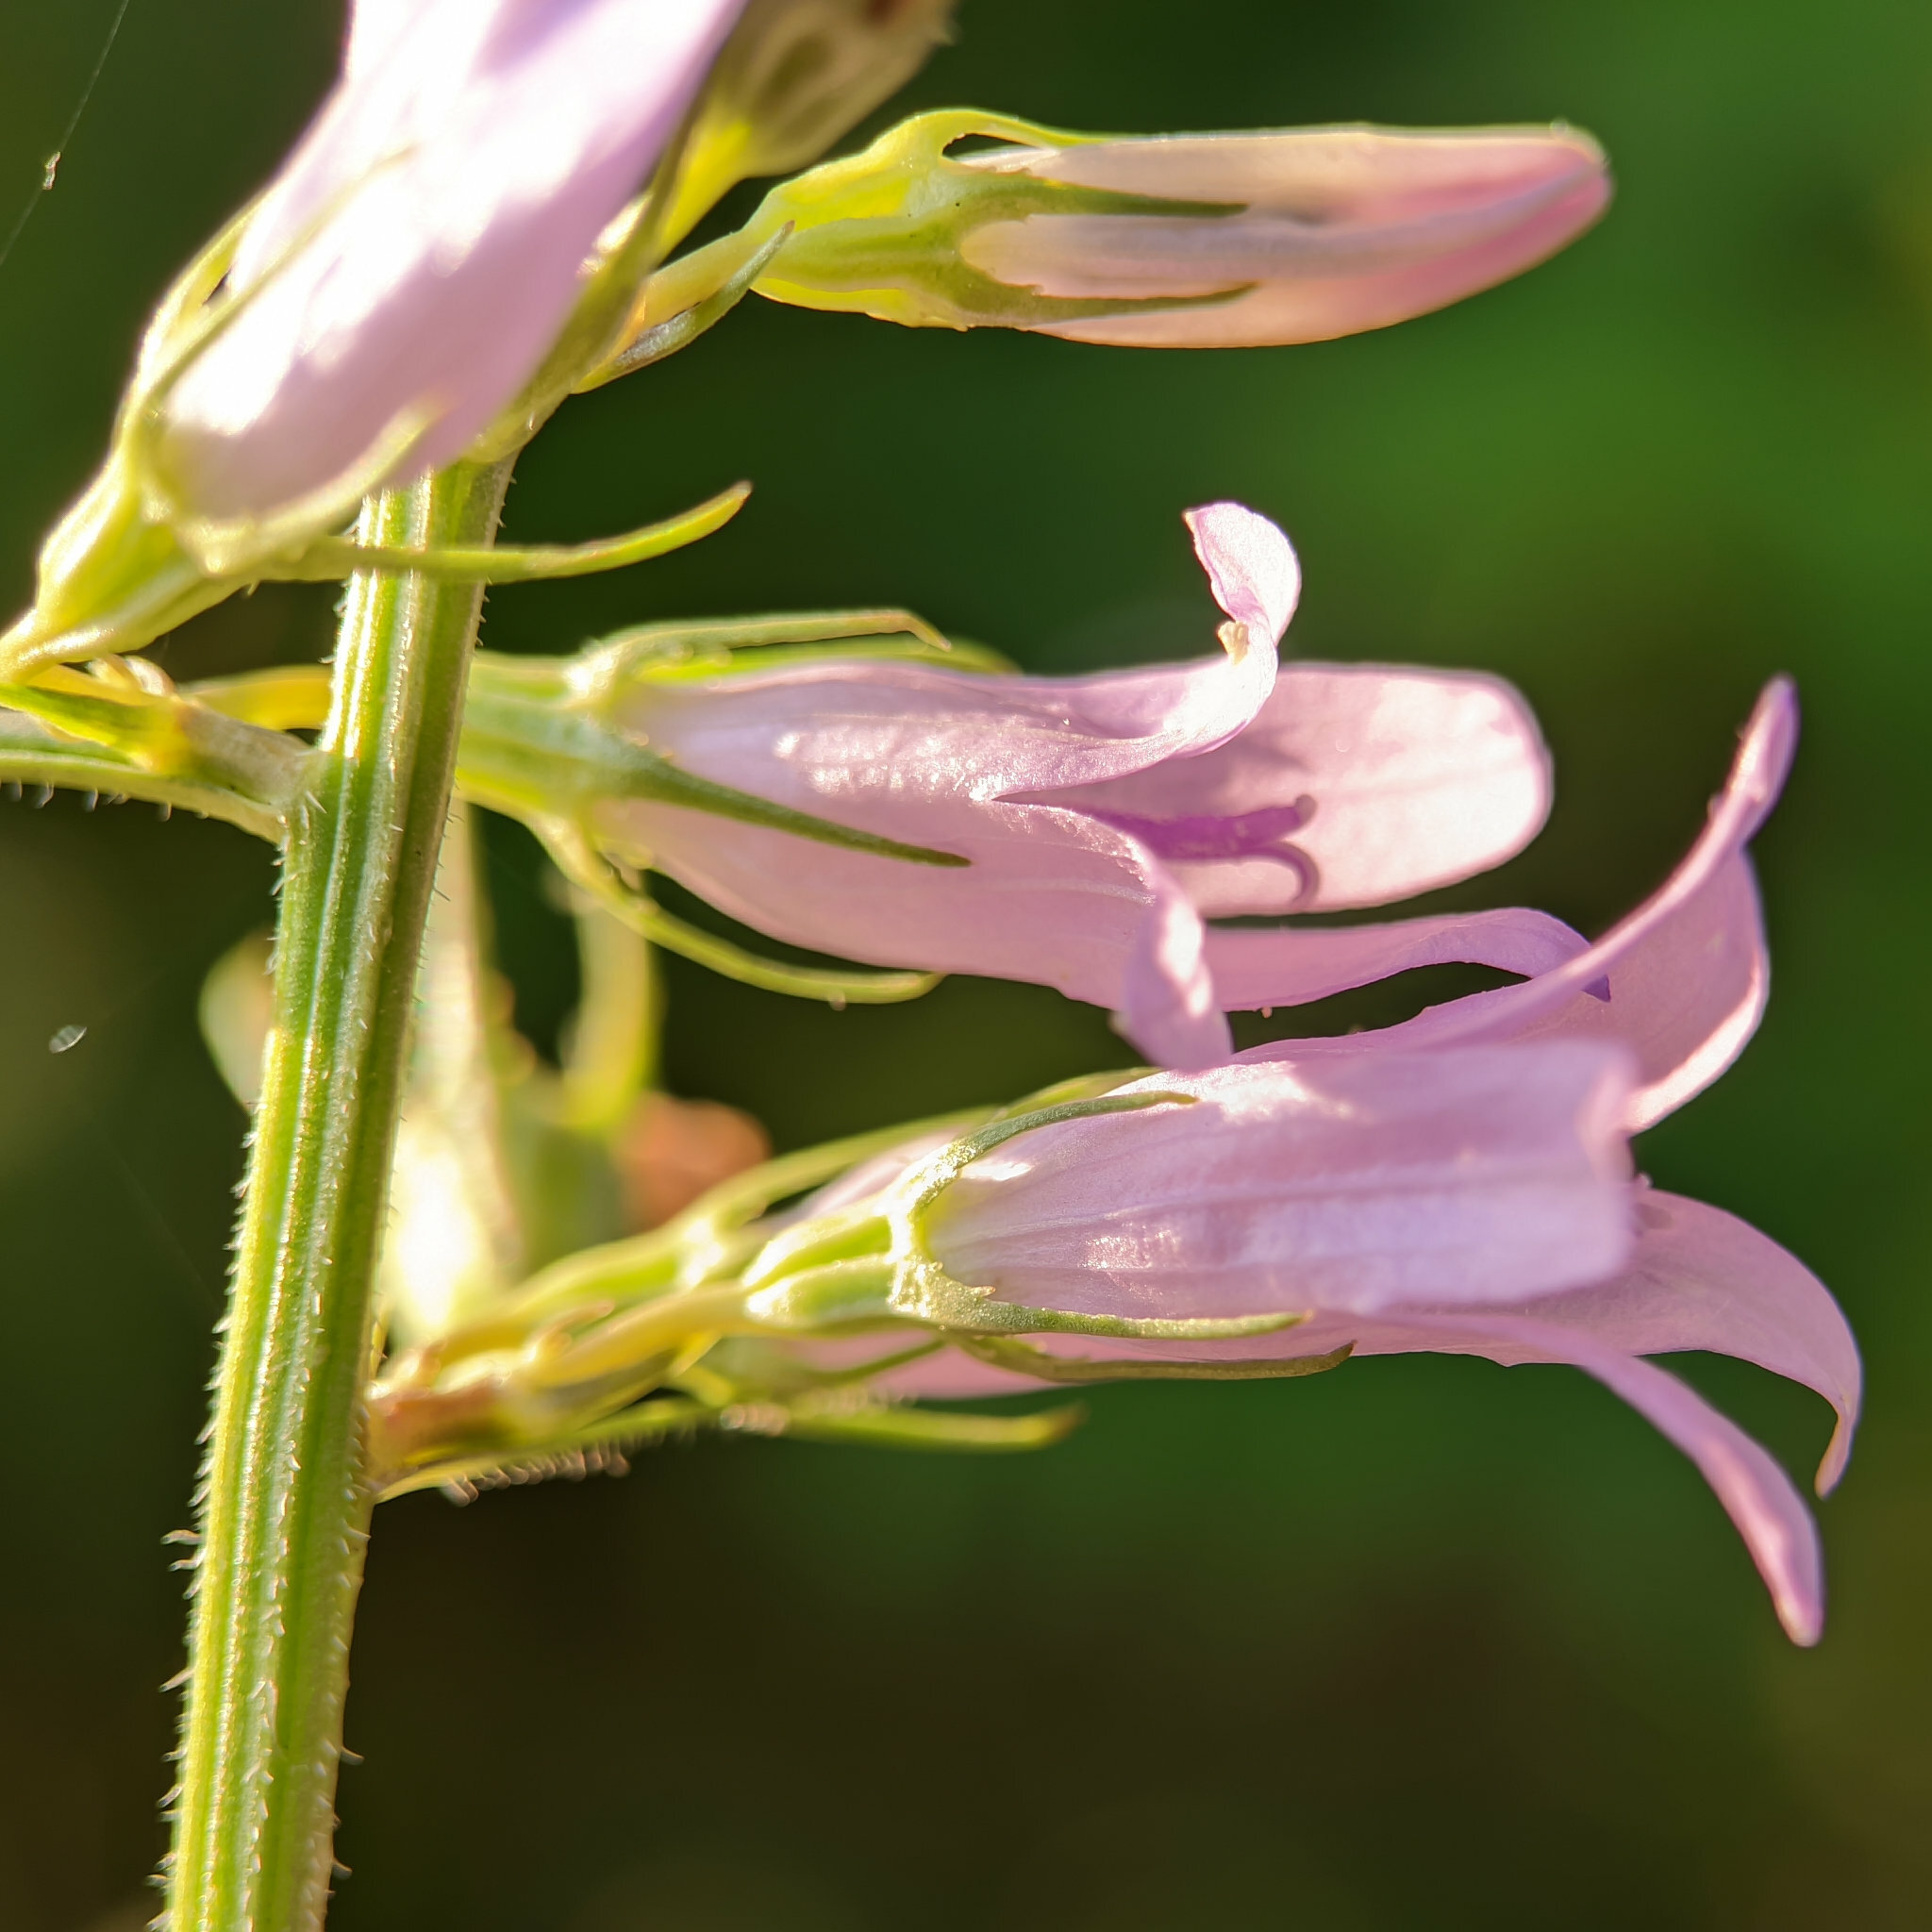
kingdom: Plantae
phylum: Tracheophyta
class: Magnoliopsida
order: Asterales
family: Campanulaceae
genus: Campanula
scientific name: Campanula rapunculus
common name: Rampion bellflower
